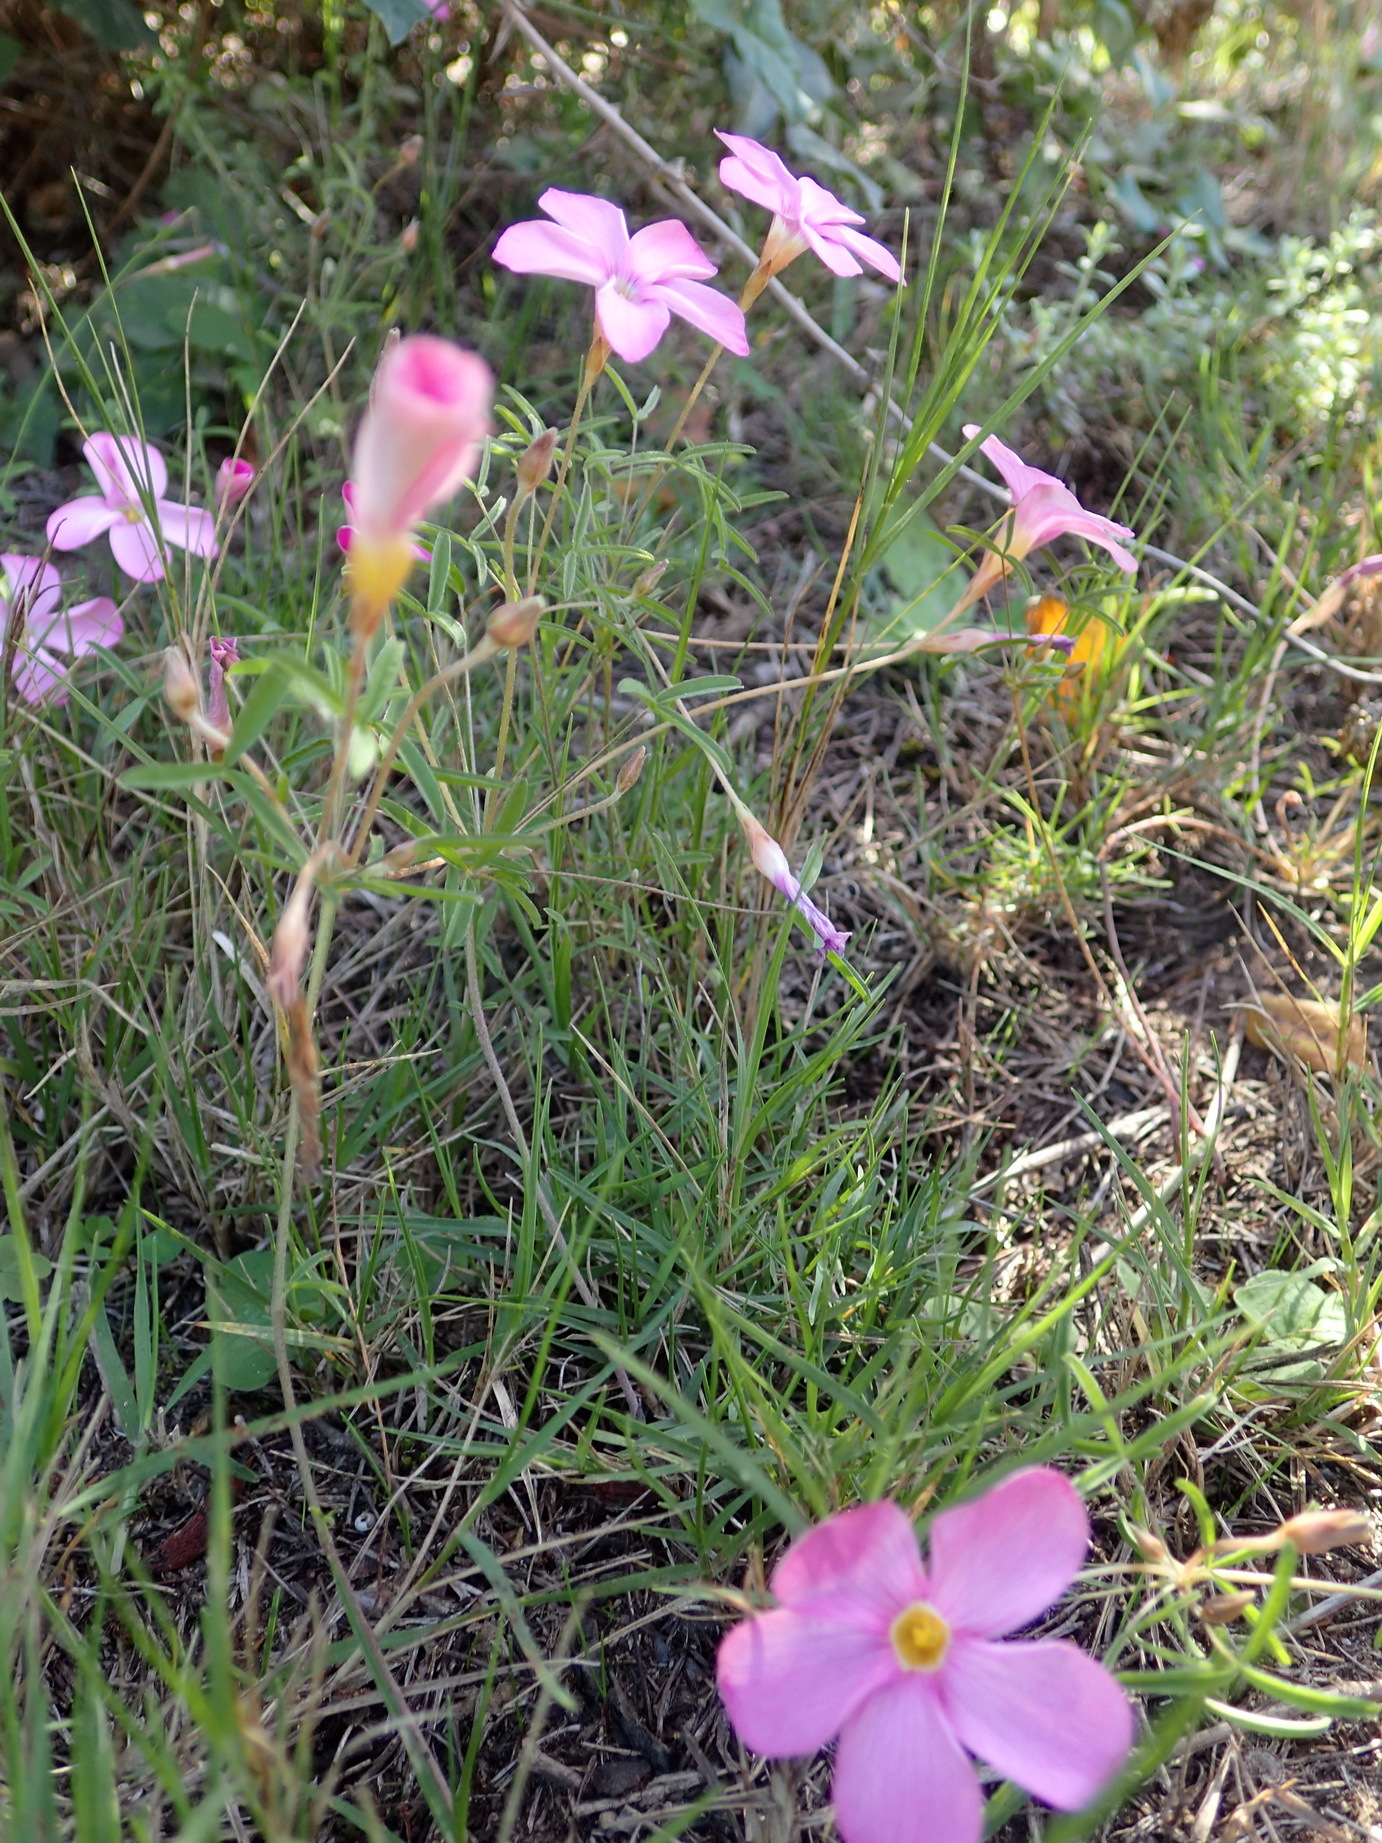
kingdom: Plantae
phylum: Tracheophyta
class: Magnoliopsida
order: Oxalidales
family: Oxalidaceae
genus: Oxalis
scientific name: Oxalis ciliaris
